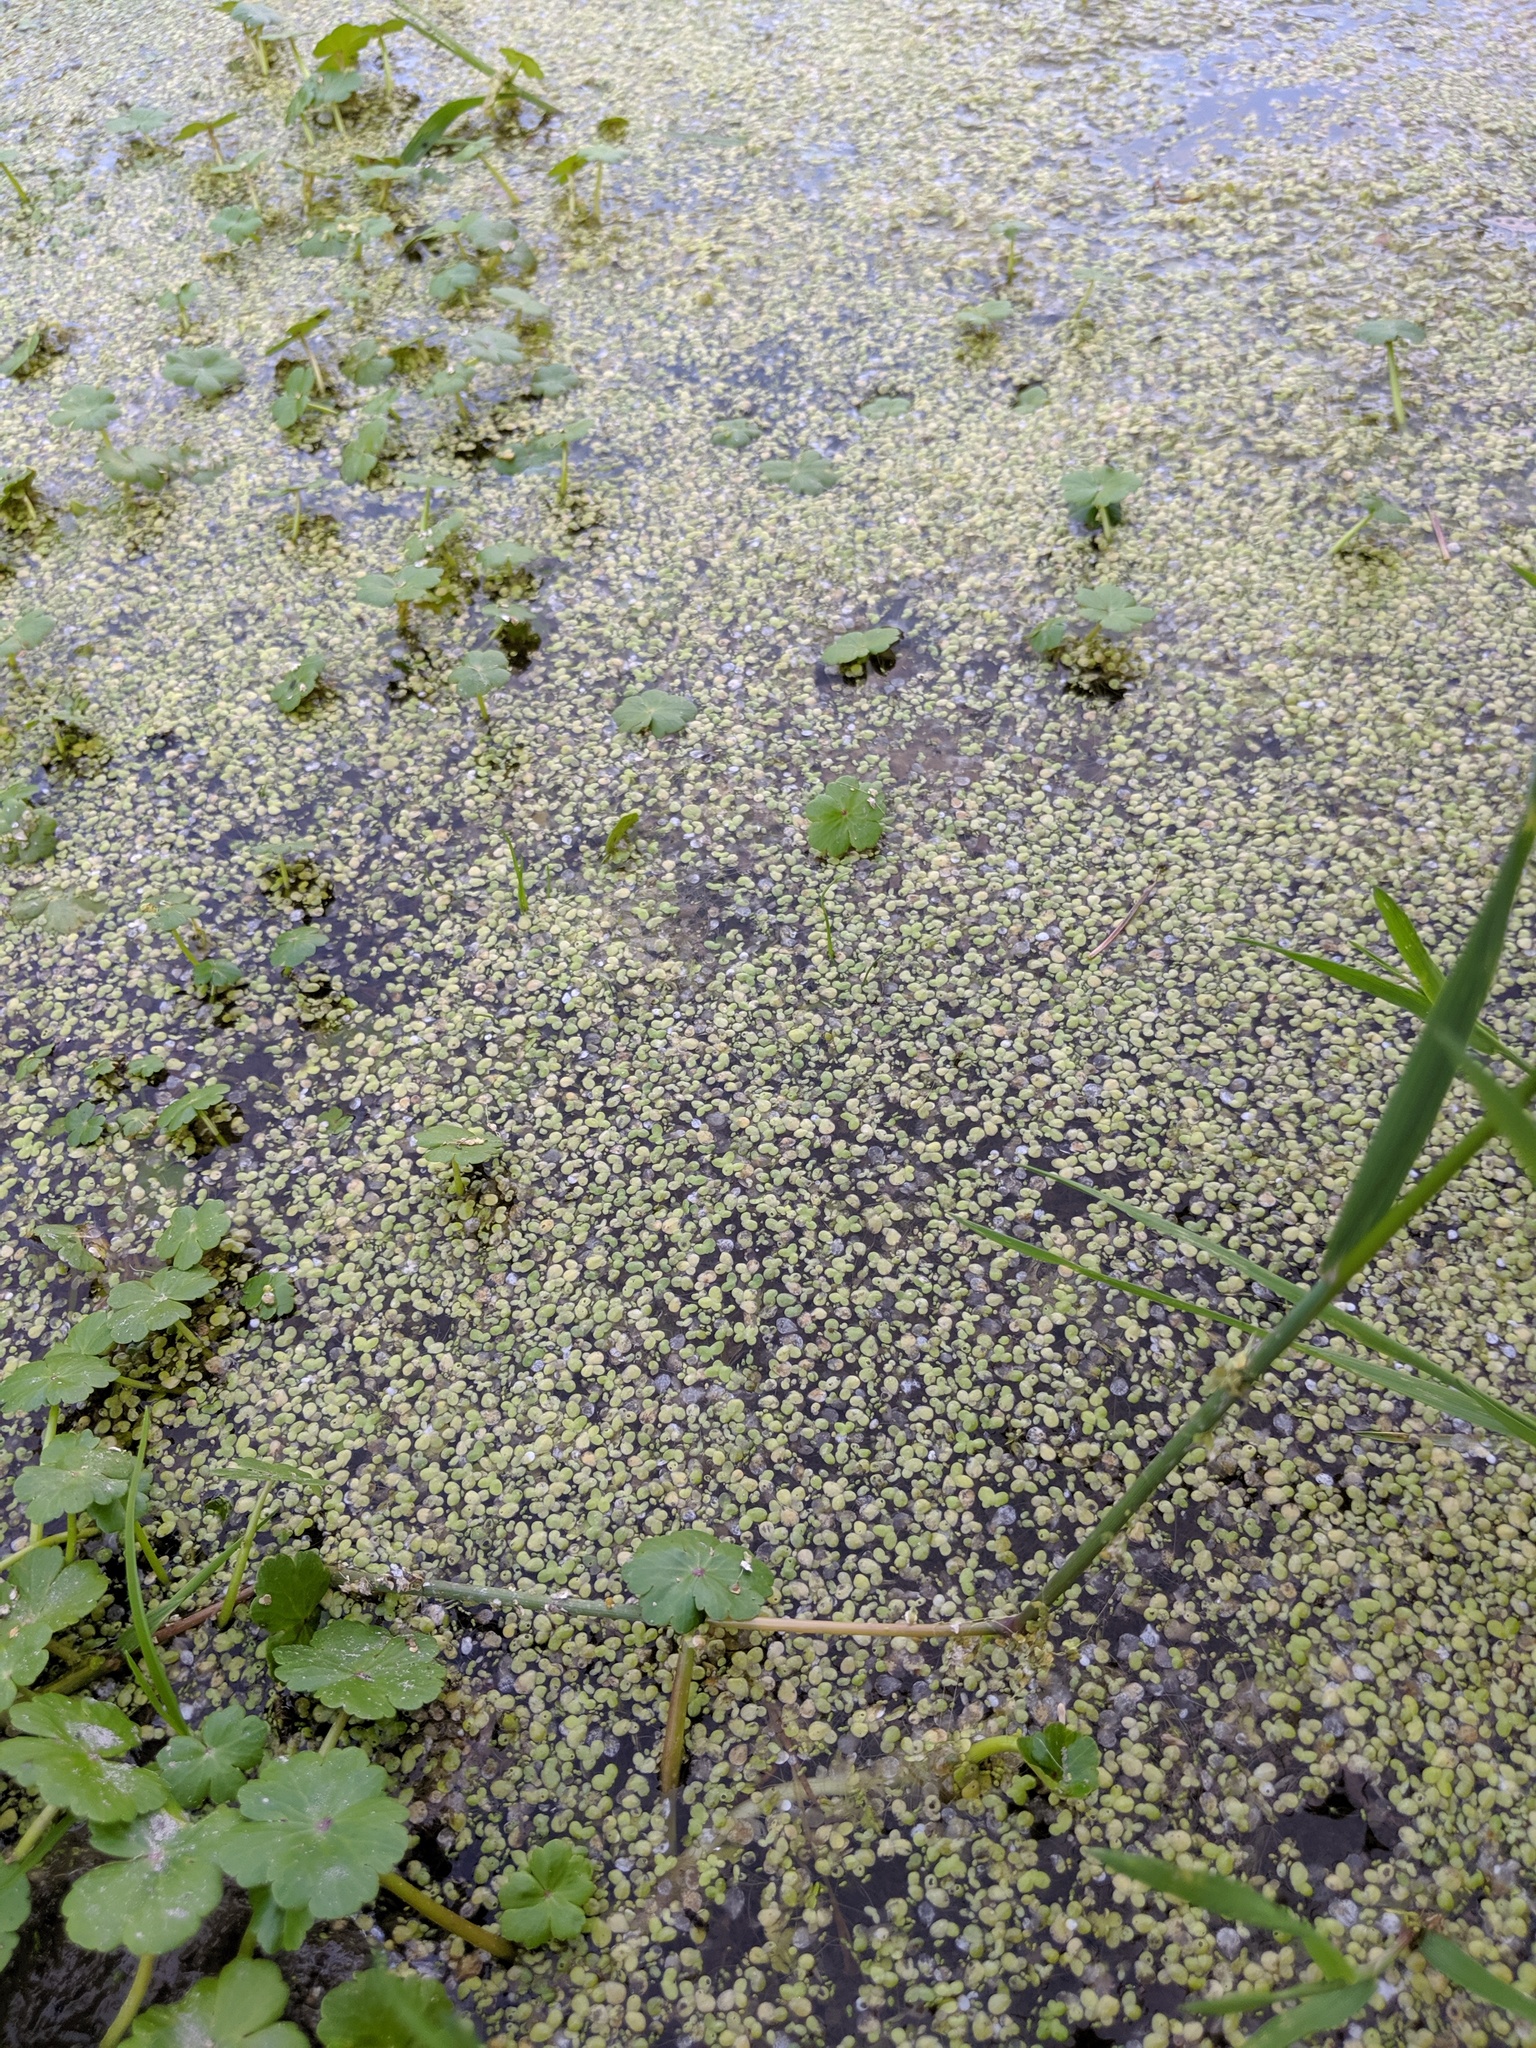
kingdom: Plantae
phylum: Tracheophyta
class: Liliopsida
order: Alismatales
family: Araceae
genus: Lemna
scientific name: Lemna minor
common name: Common duckweed
